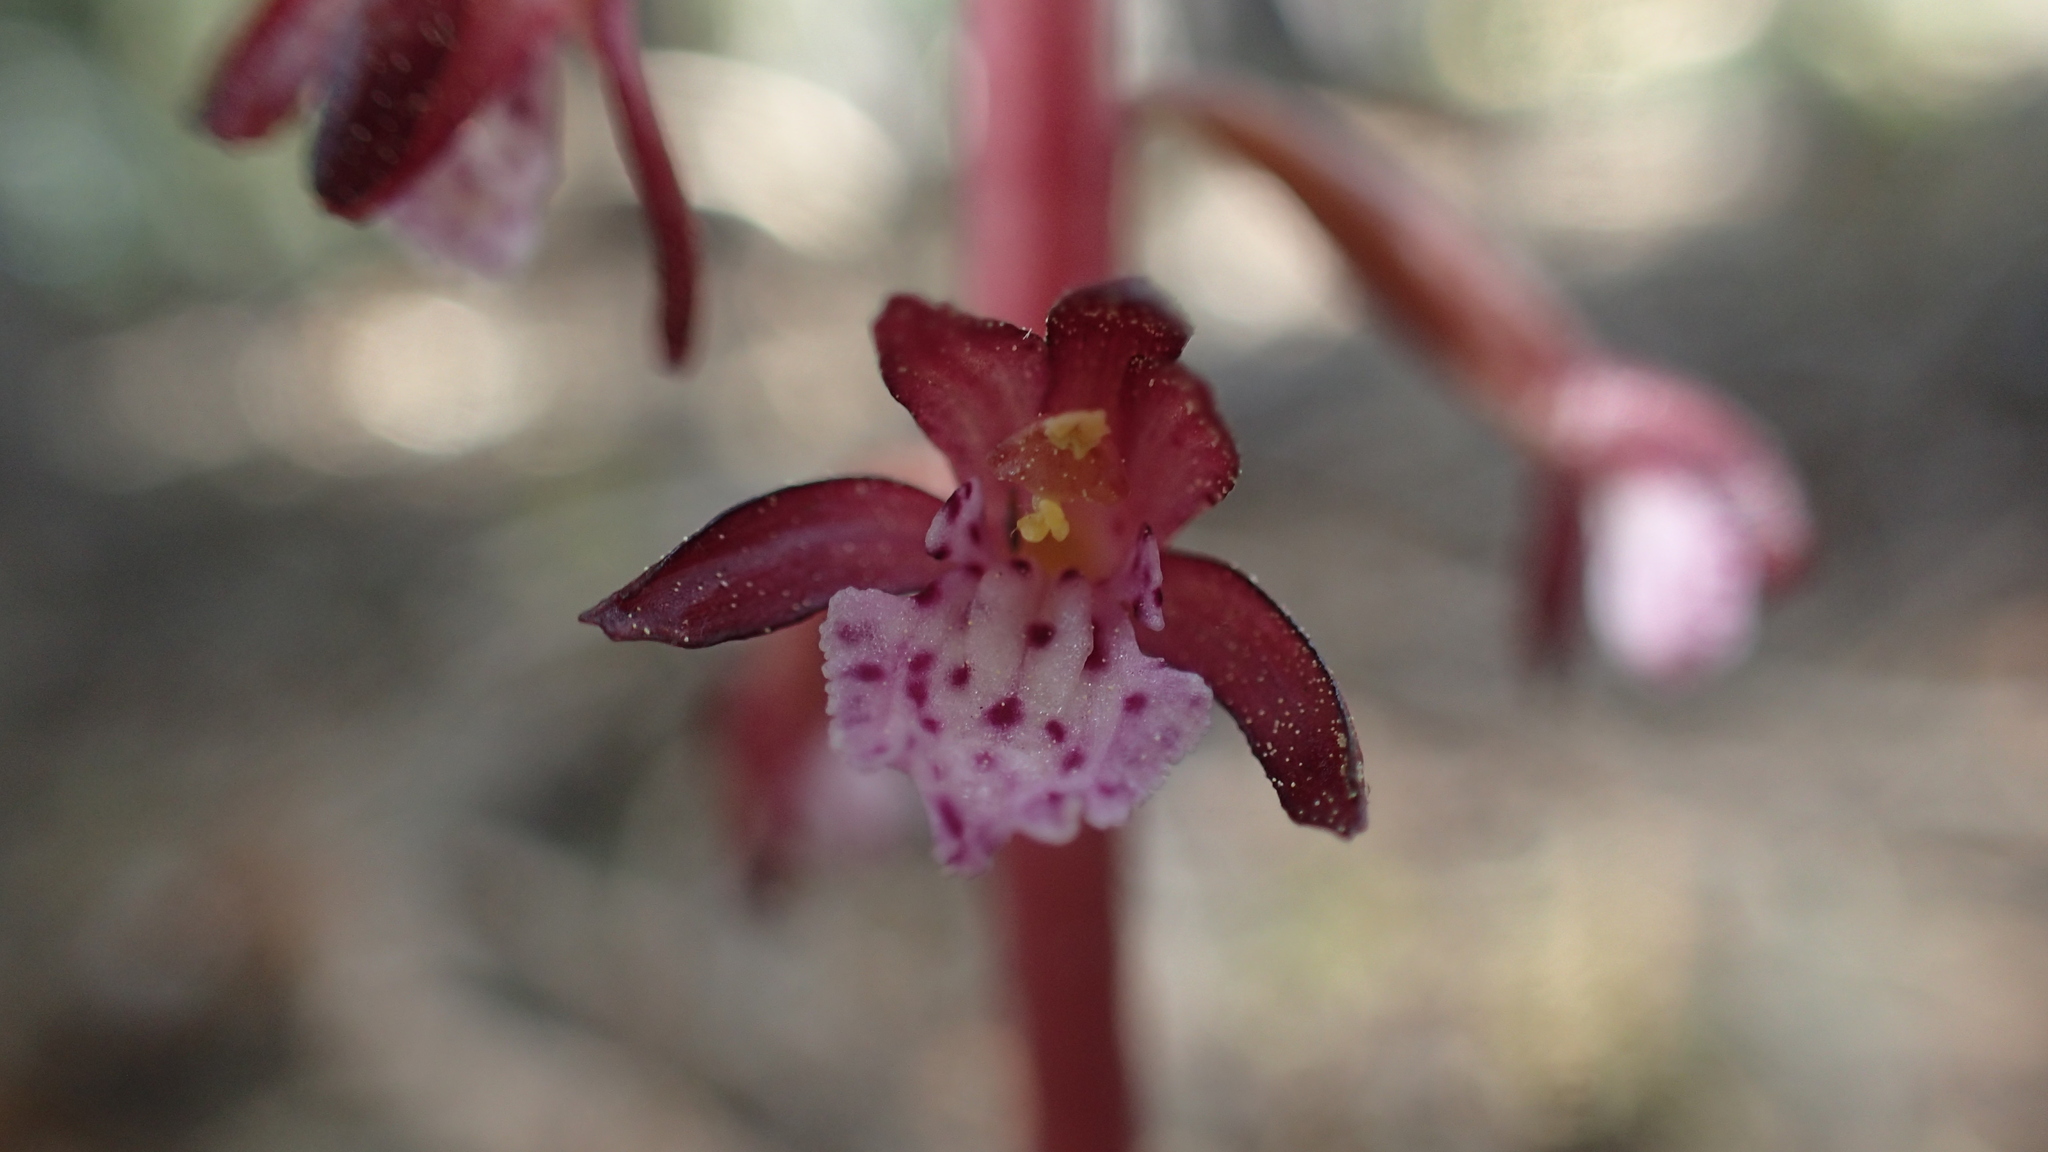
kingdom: Plantae
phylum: Tracheophyta
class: Liliopsida
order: Asparagales
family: Orchidaceae
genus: Corallorhiza
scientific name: Corallorhiza maculata
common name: Spotted coralroot
